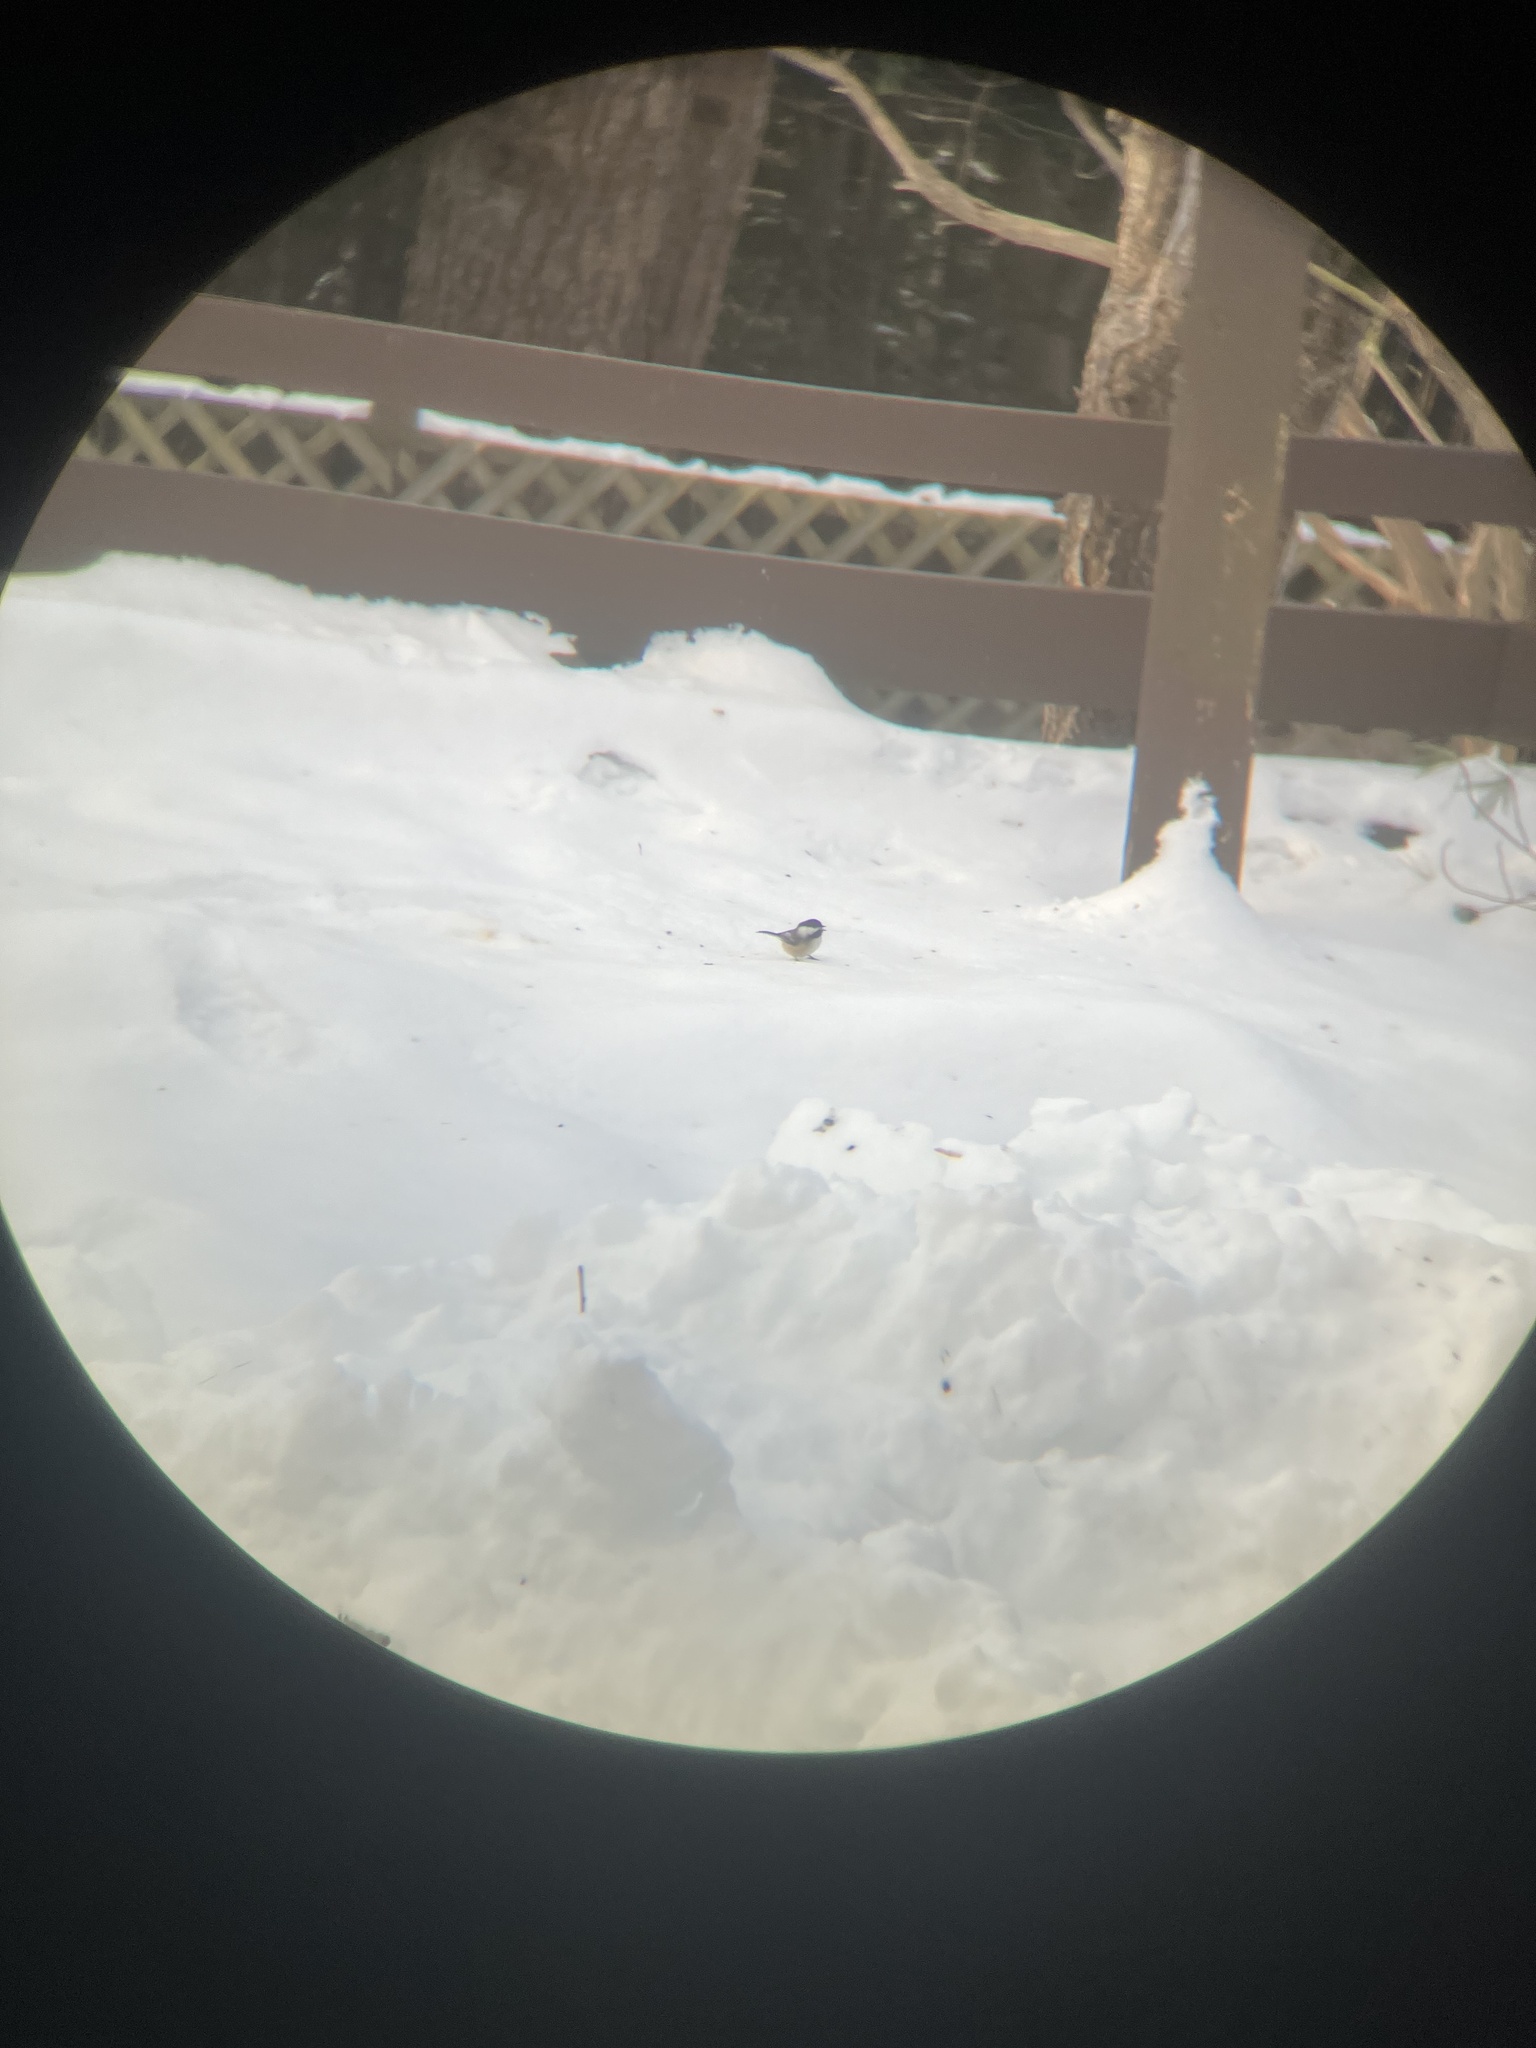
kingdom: Animalia
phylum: Chordata
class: Aves
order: Passeriformes
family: Paridae
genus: Poecile
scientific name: Poecile atricapillus
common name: Black-capped chickadee
